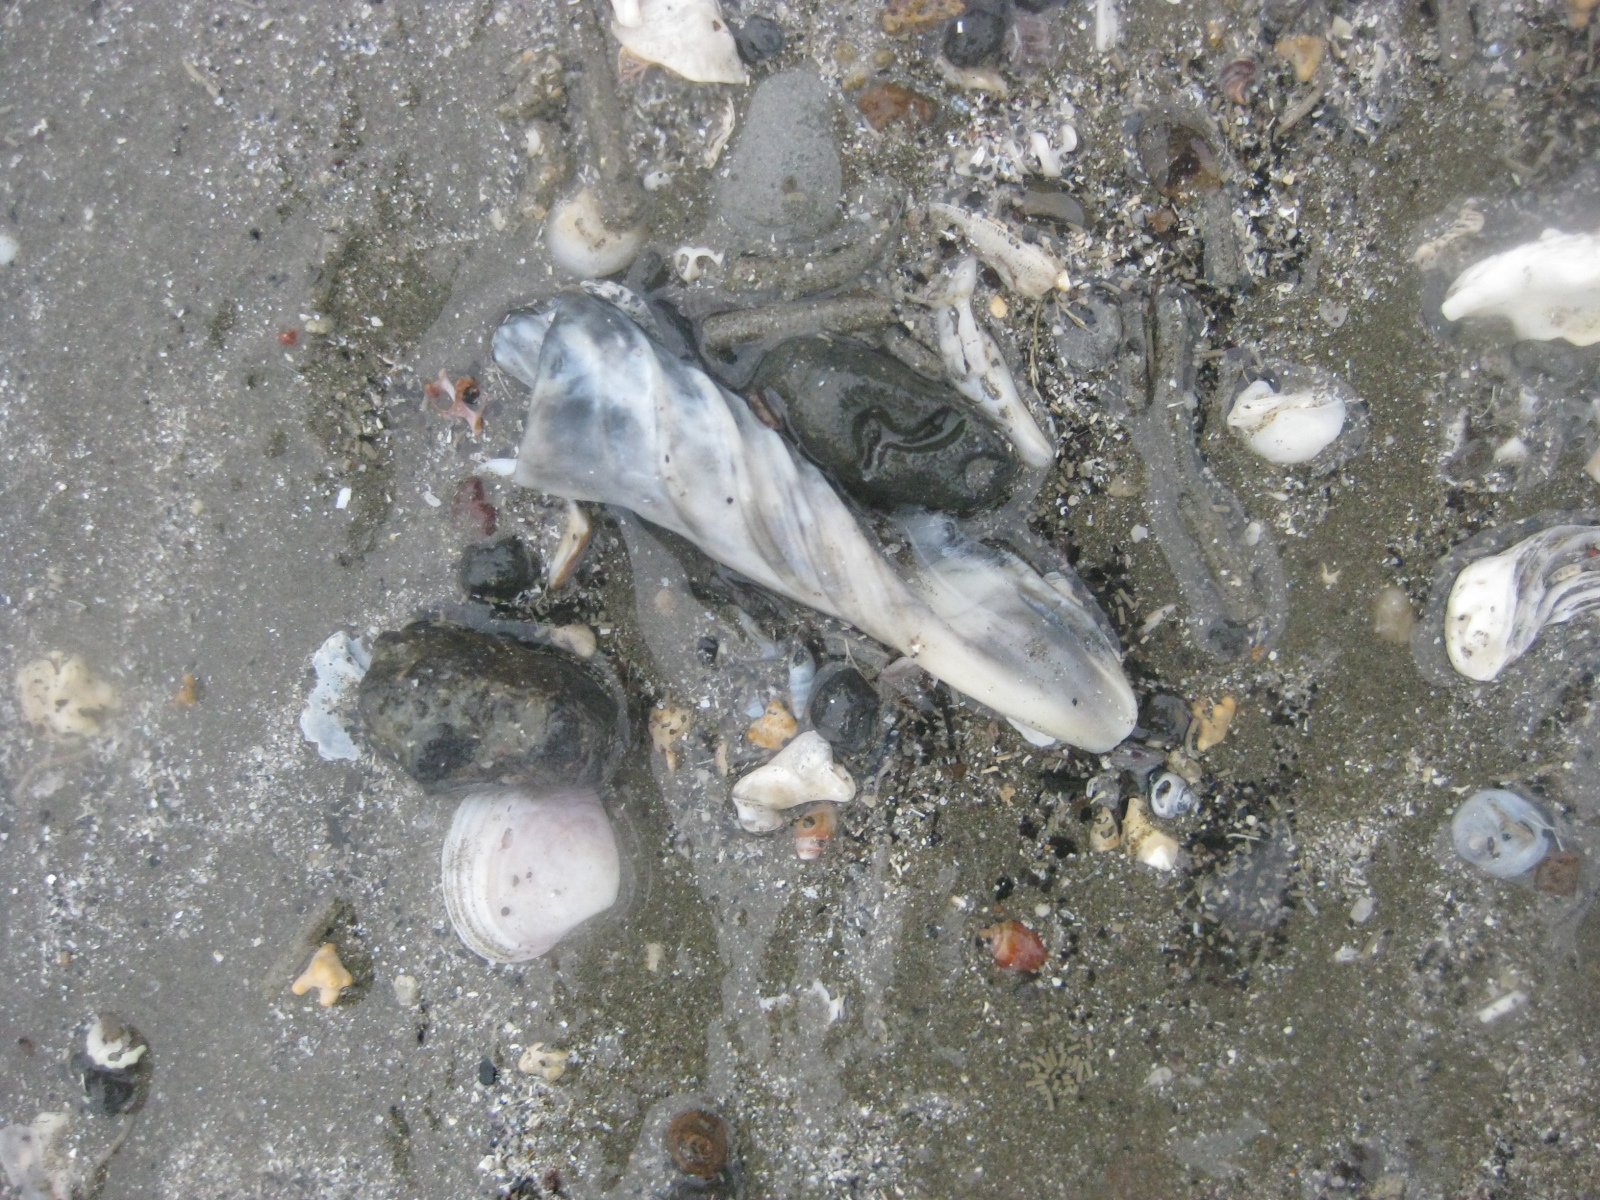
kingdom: Animalia
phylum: Mollusca
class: Gastropoda
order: Neogastropoda
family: Volutidae
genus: Alcithoe
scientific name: Alcithoe arabica
